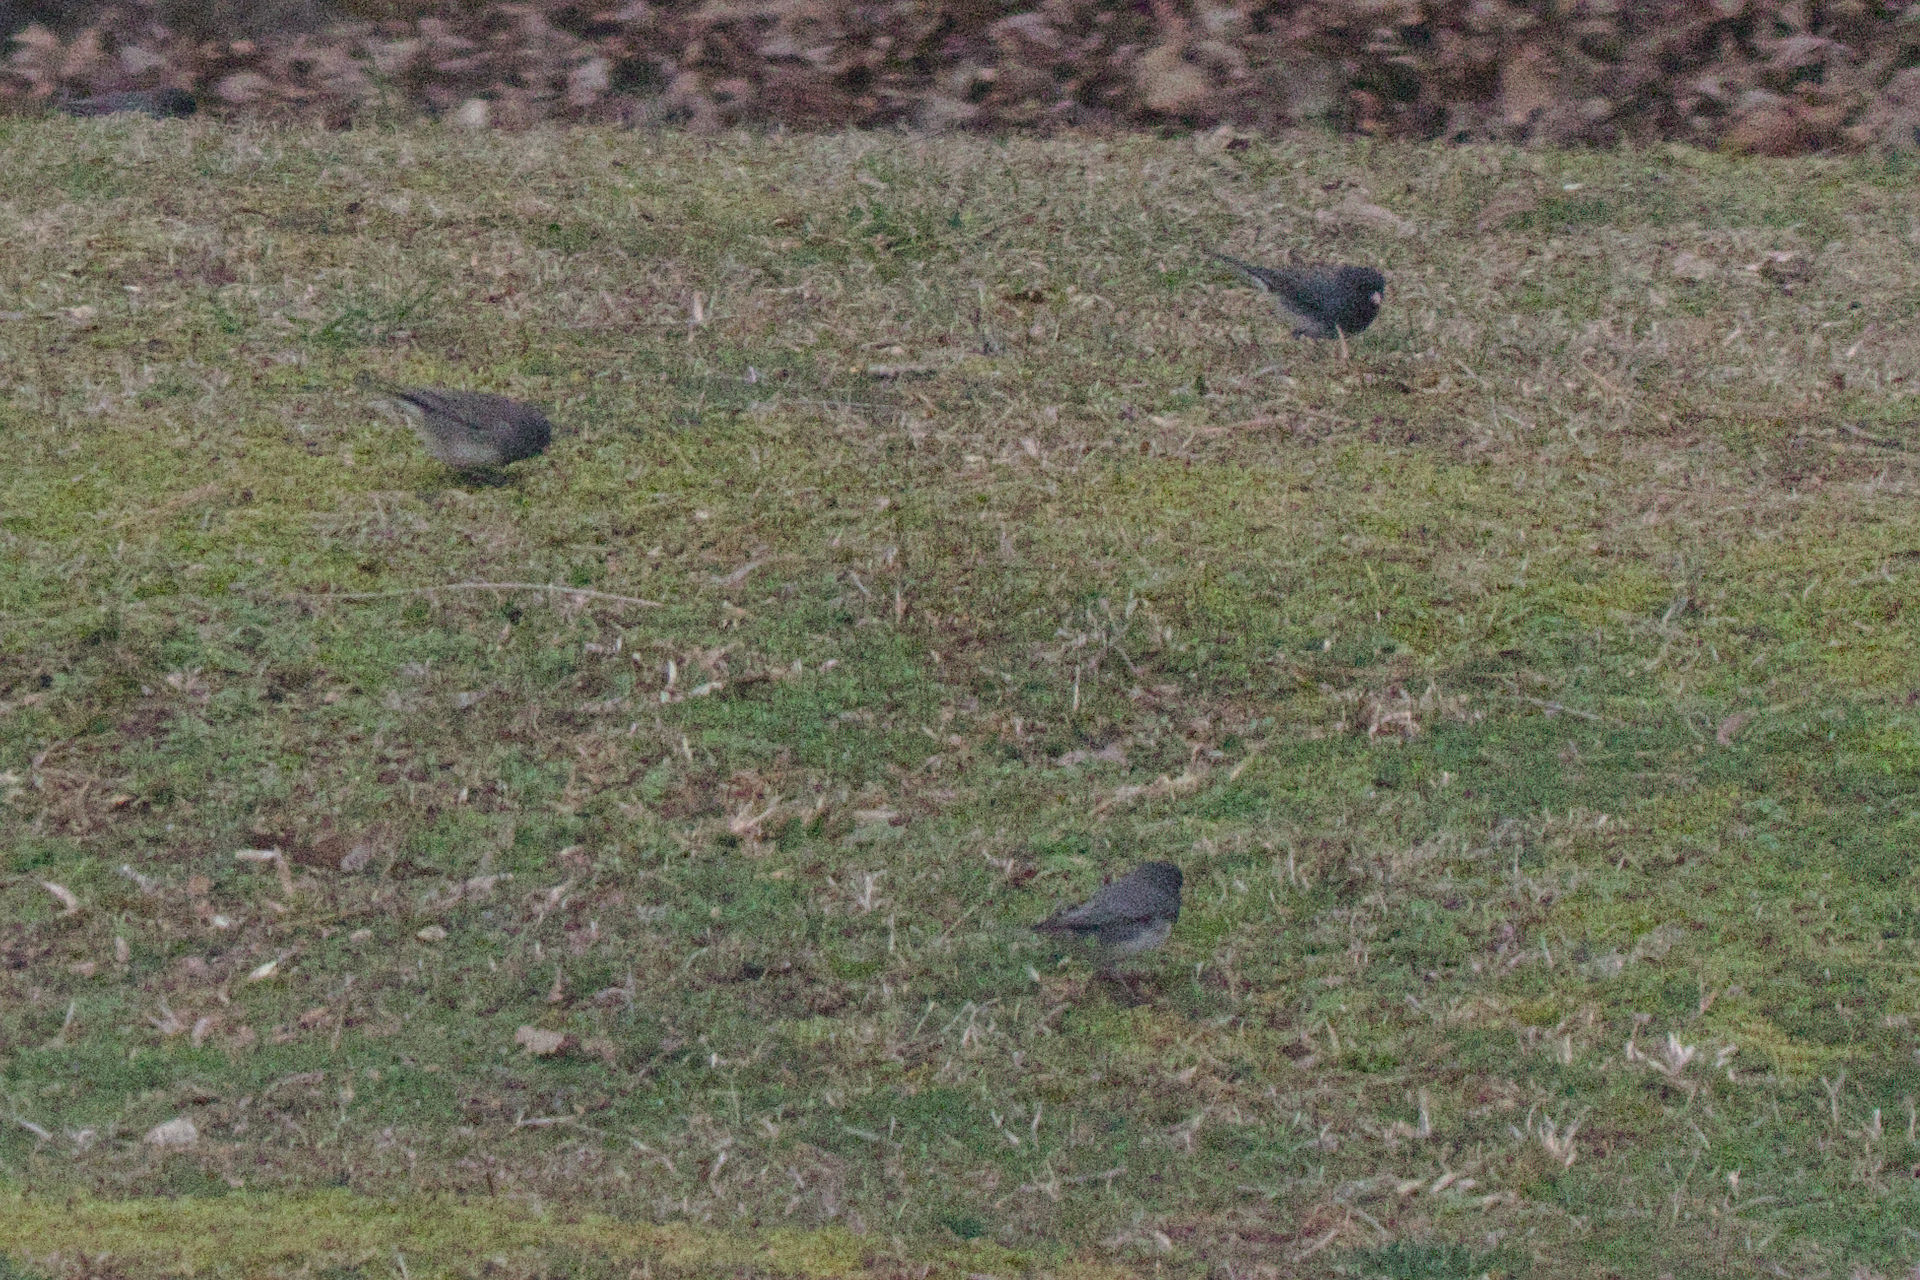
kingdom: Animalia
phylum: Chordata
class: Aves
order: Passeriformes
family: Passerellidae
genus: Junco
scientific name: Junco hyemalis
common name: Dark-eyed junco
